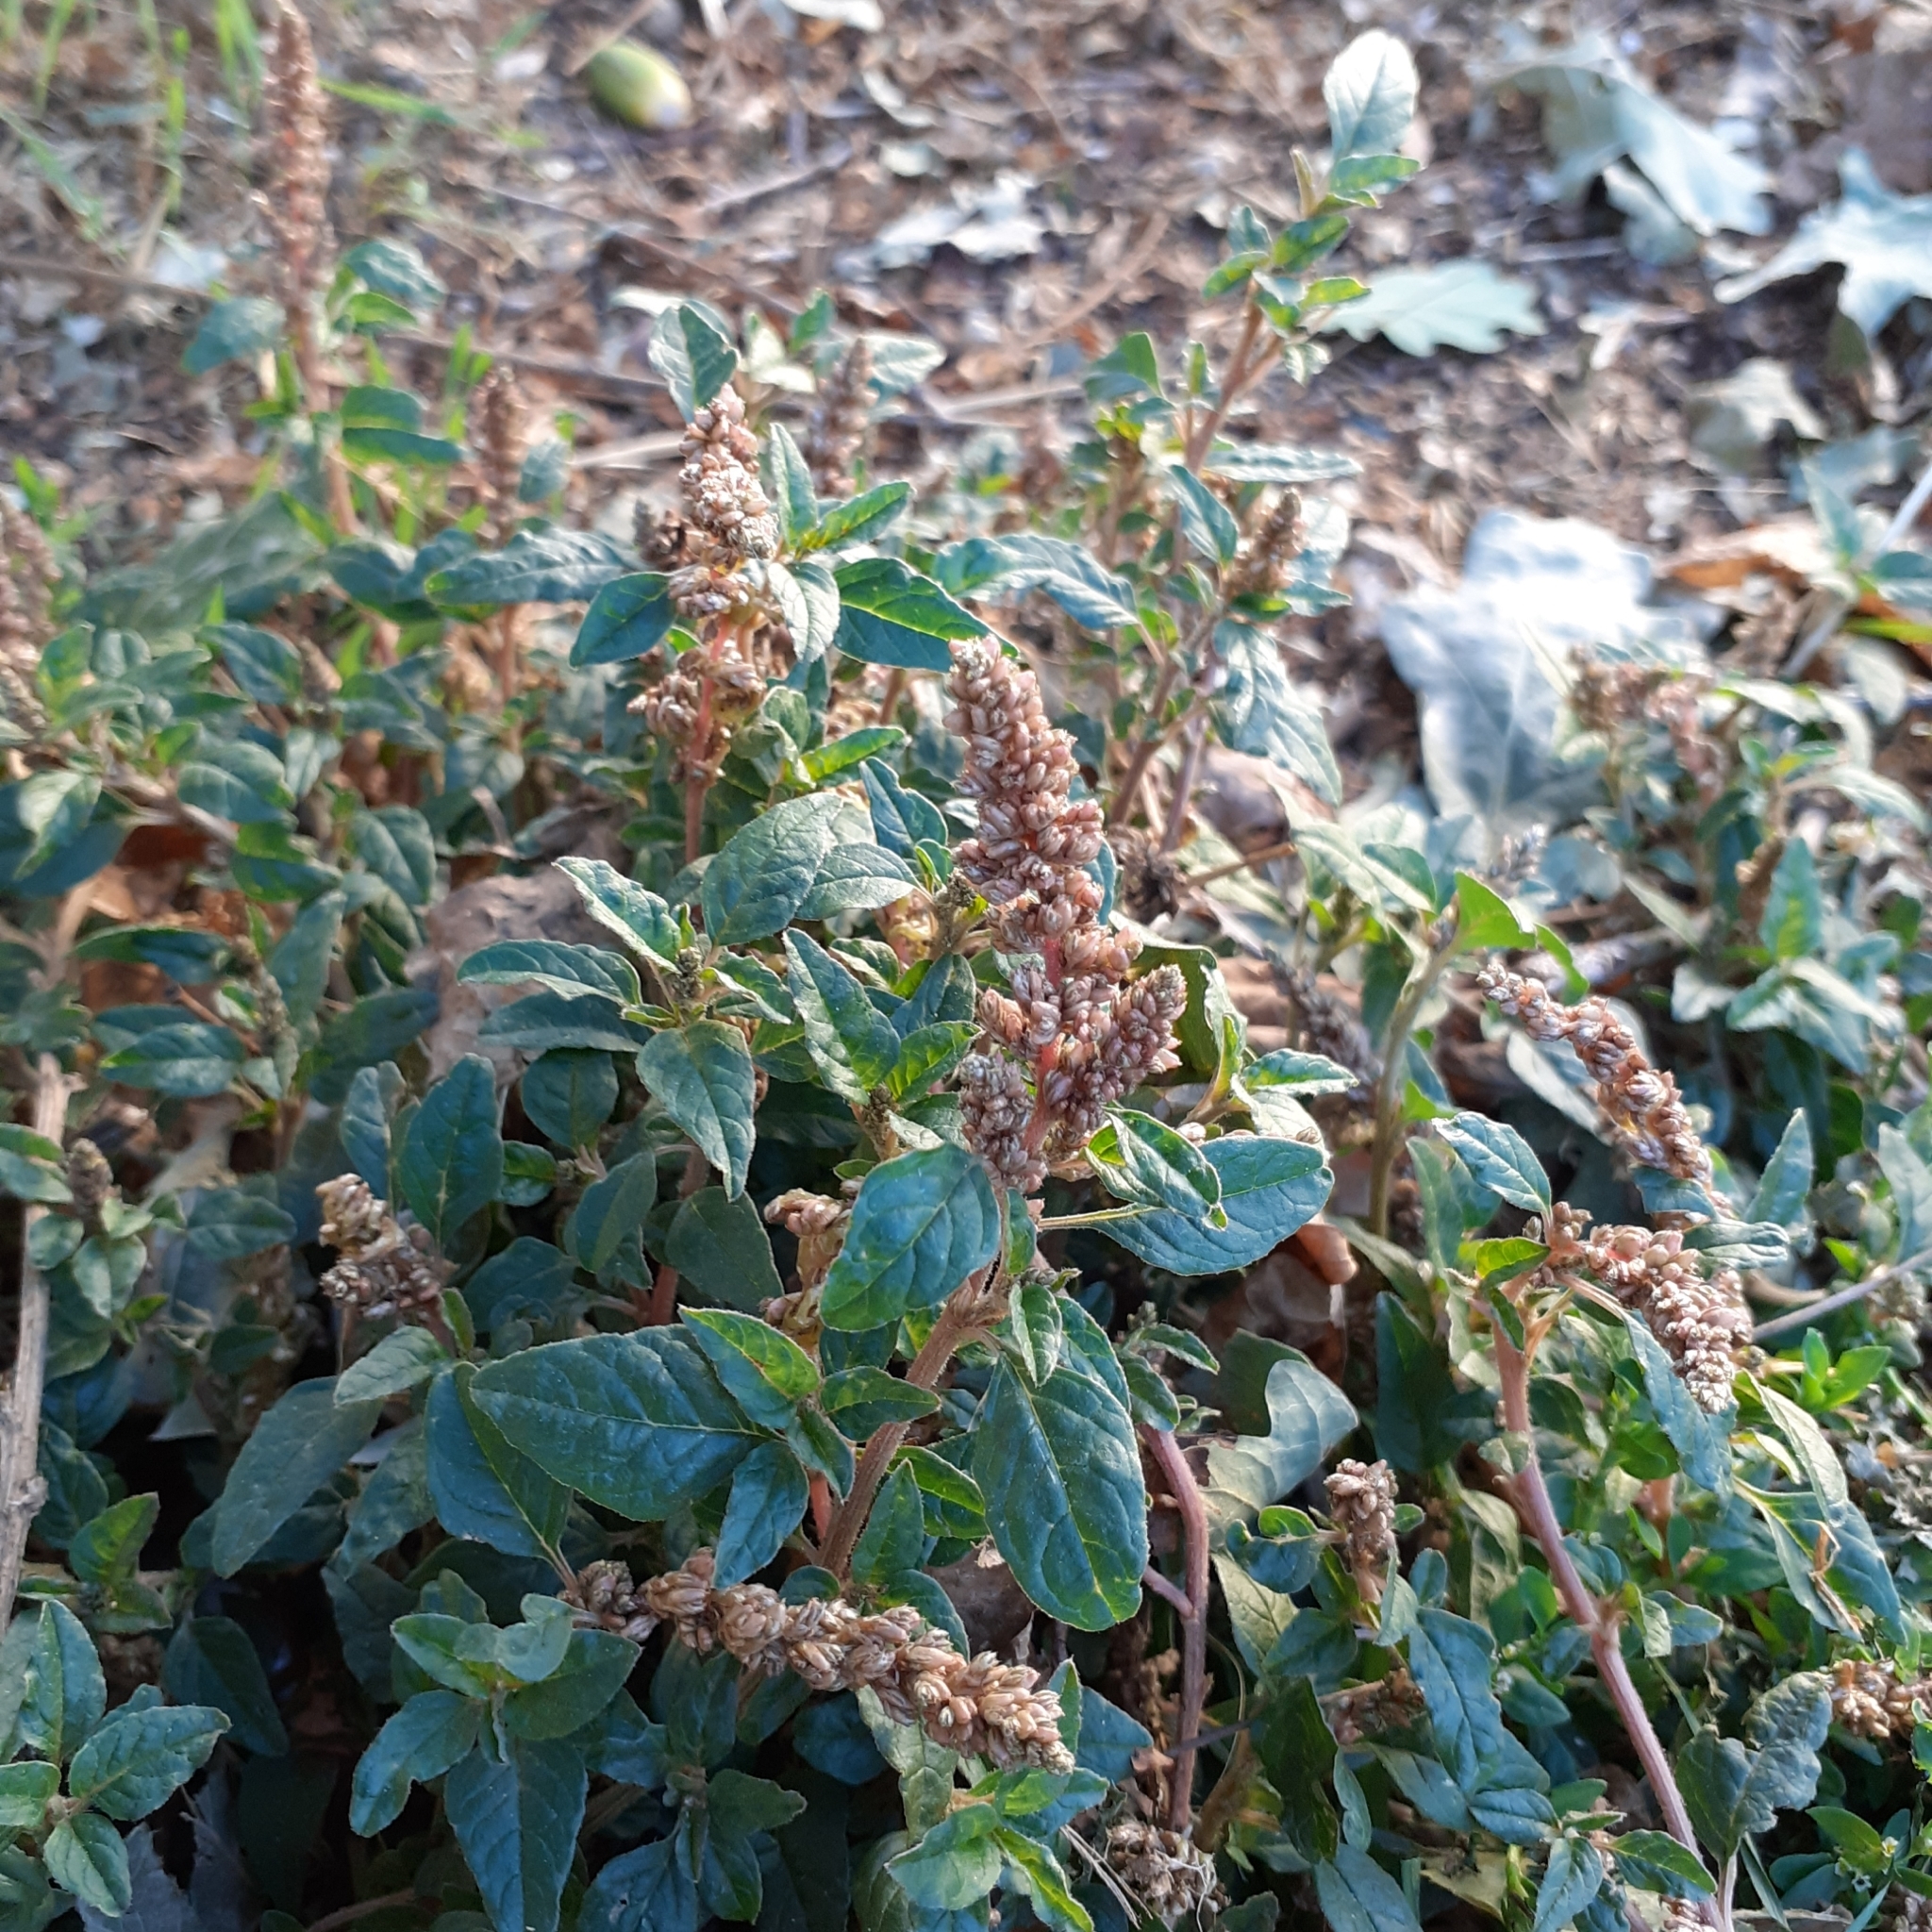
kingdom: Plantae
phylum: Tracheophyta
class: Magnoliopsida
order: Caryophyllales
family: Amaranthaceae
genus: Amaranthus
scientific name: Amaranthus deflexus
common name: Perennial pigweed
